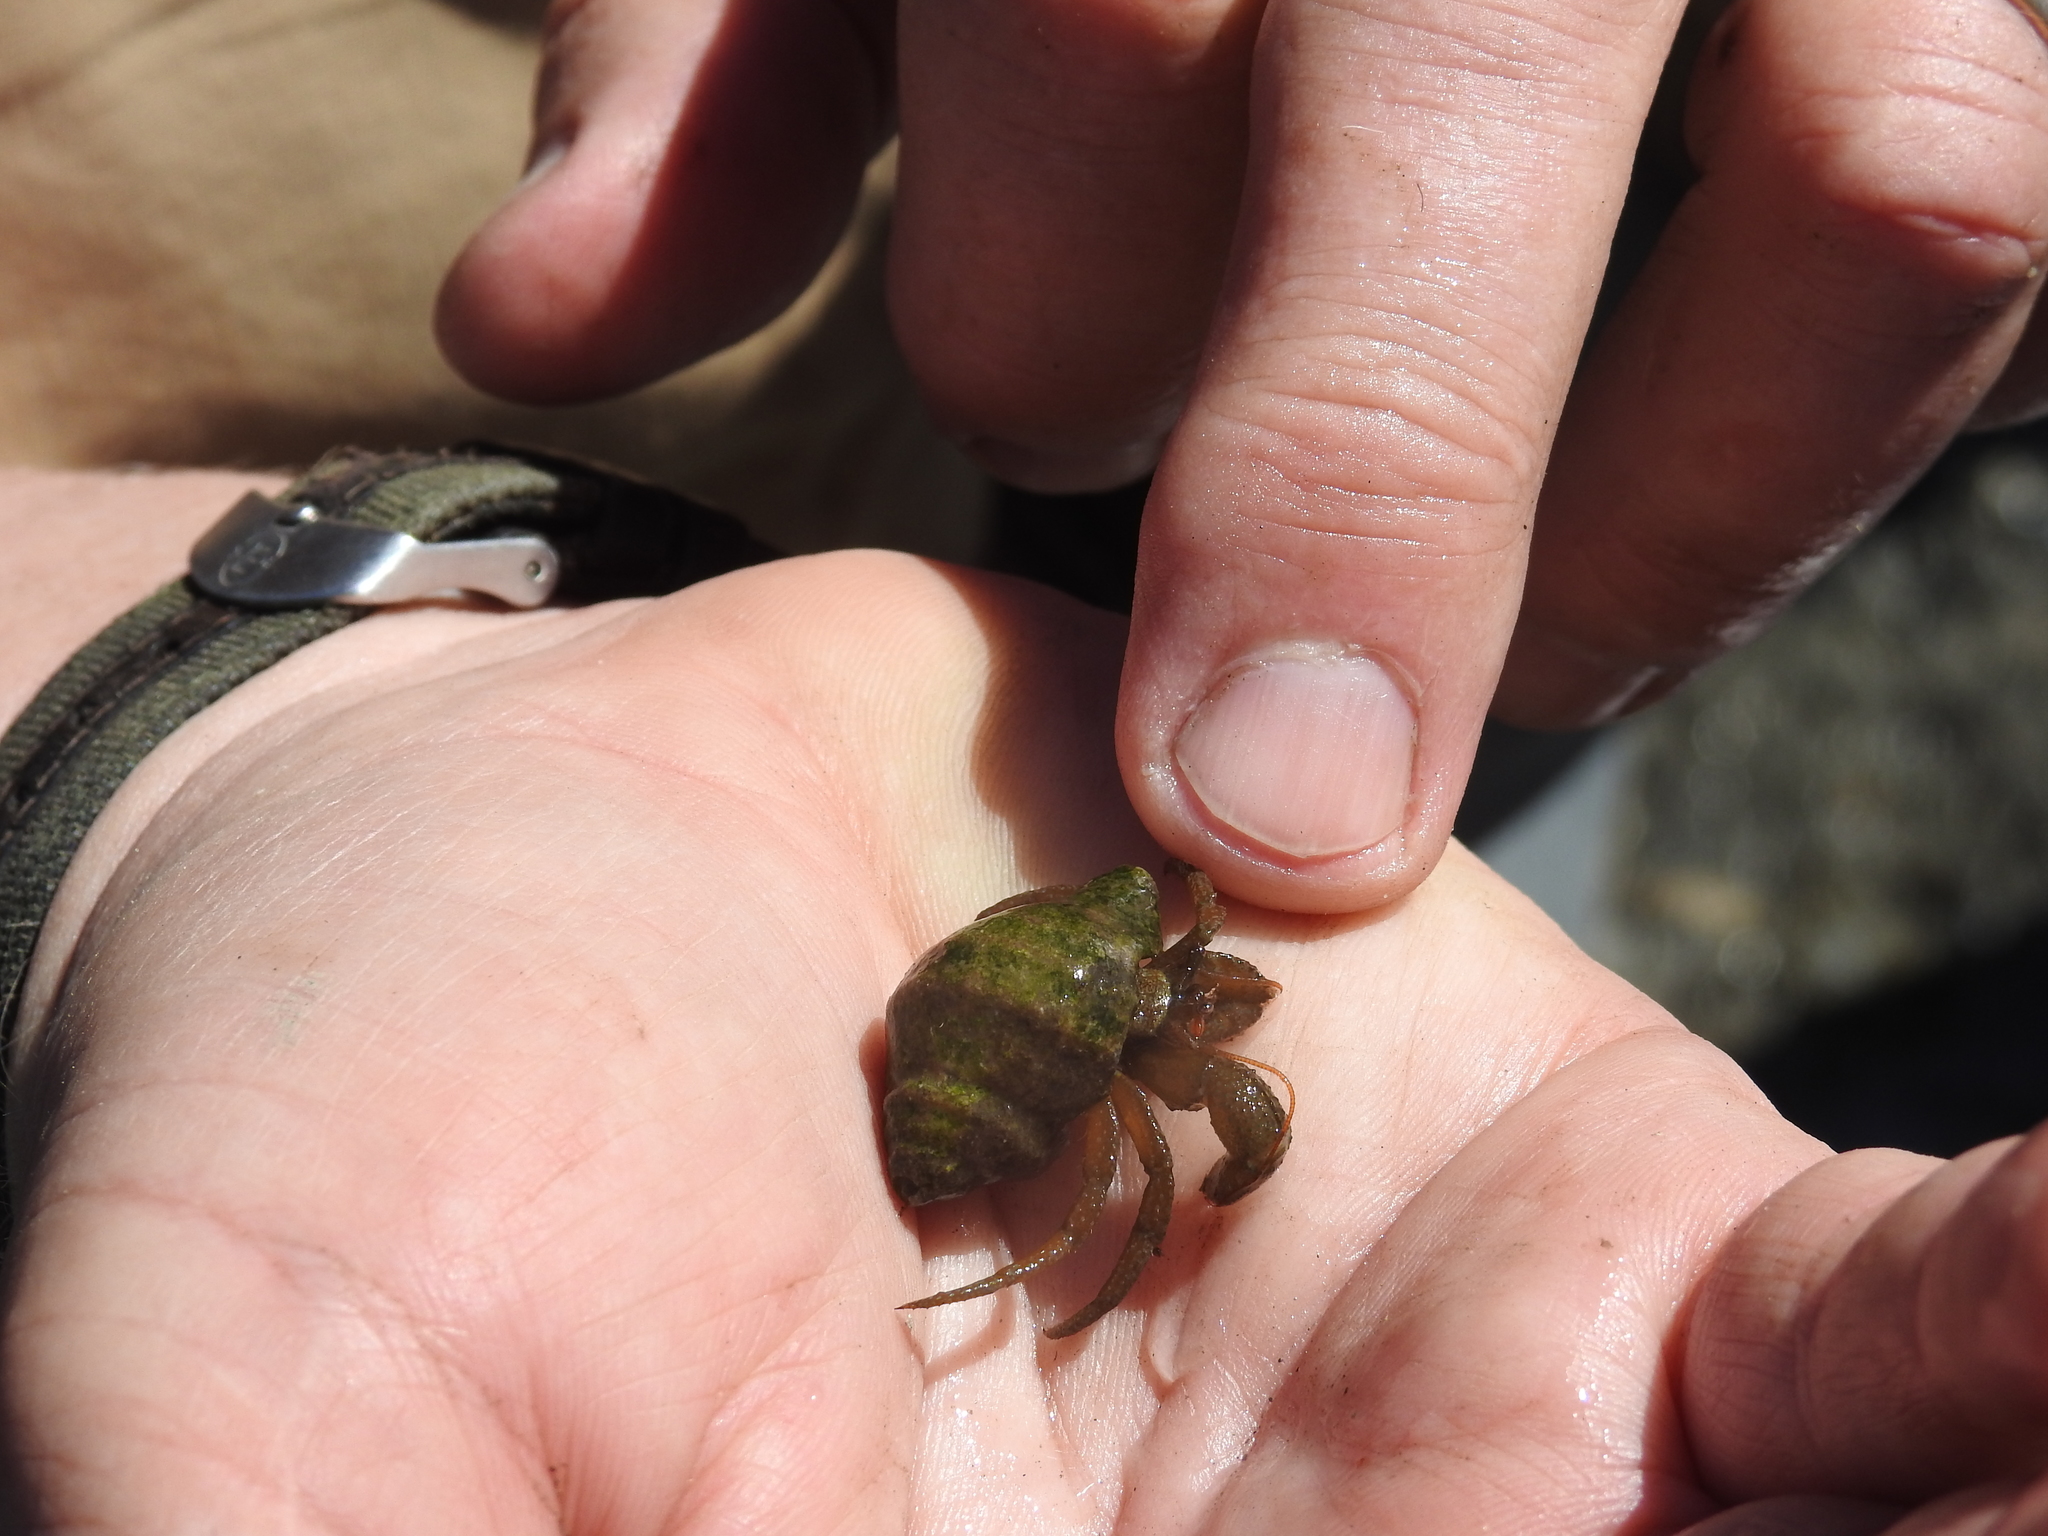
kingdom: Animalia
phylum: Arthropoda
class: Malacostraca
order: Decapoda
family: Paguridae
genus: Pagurus
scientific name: Pagurus granosimanus
